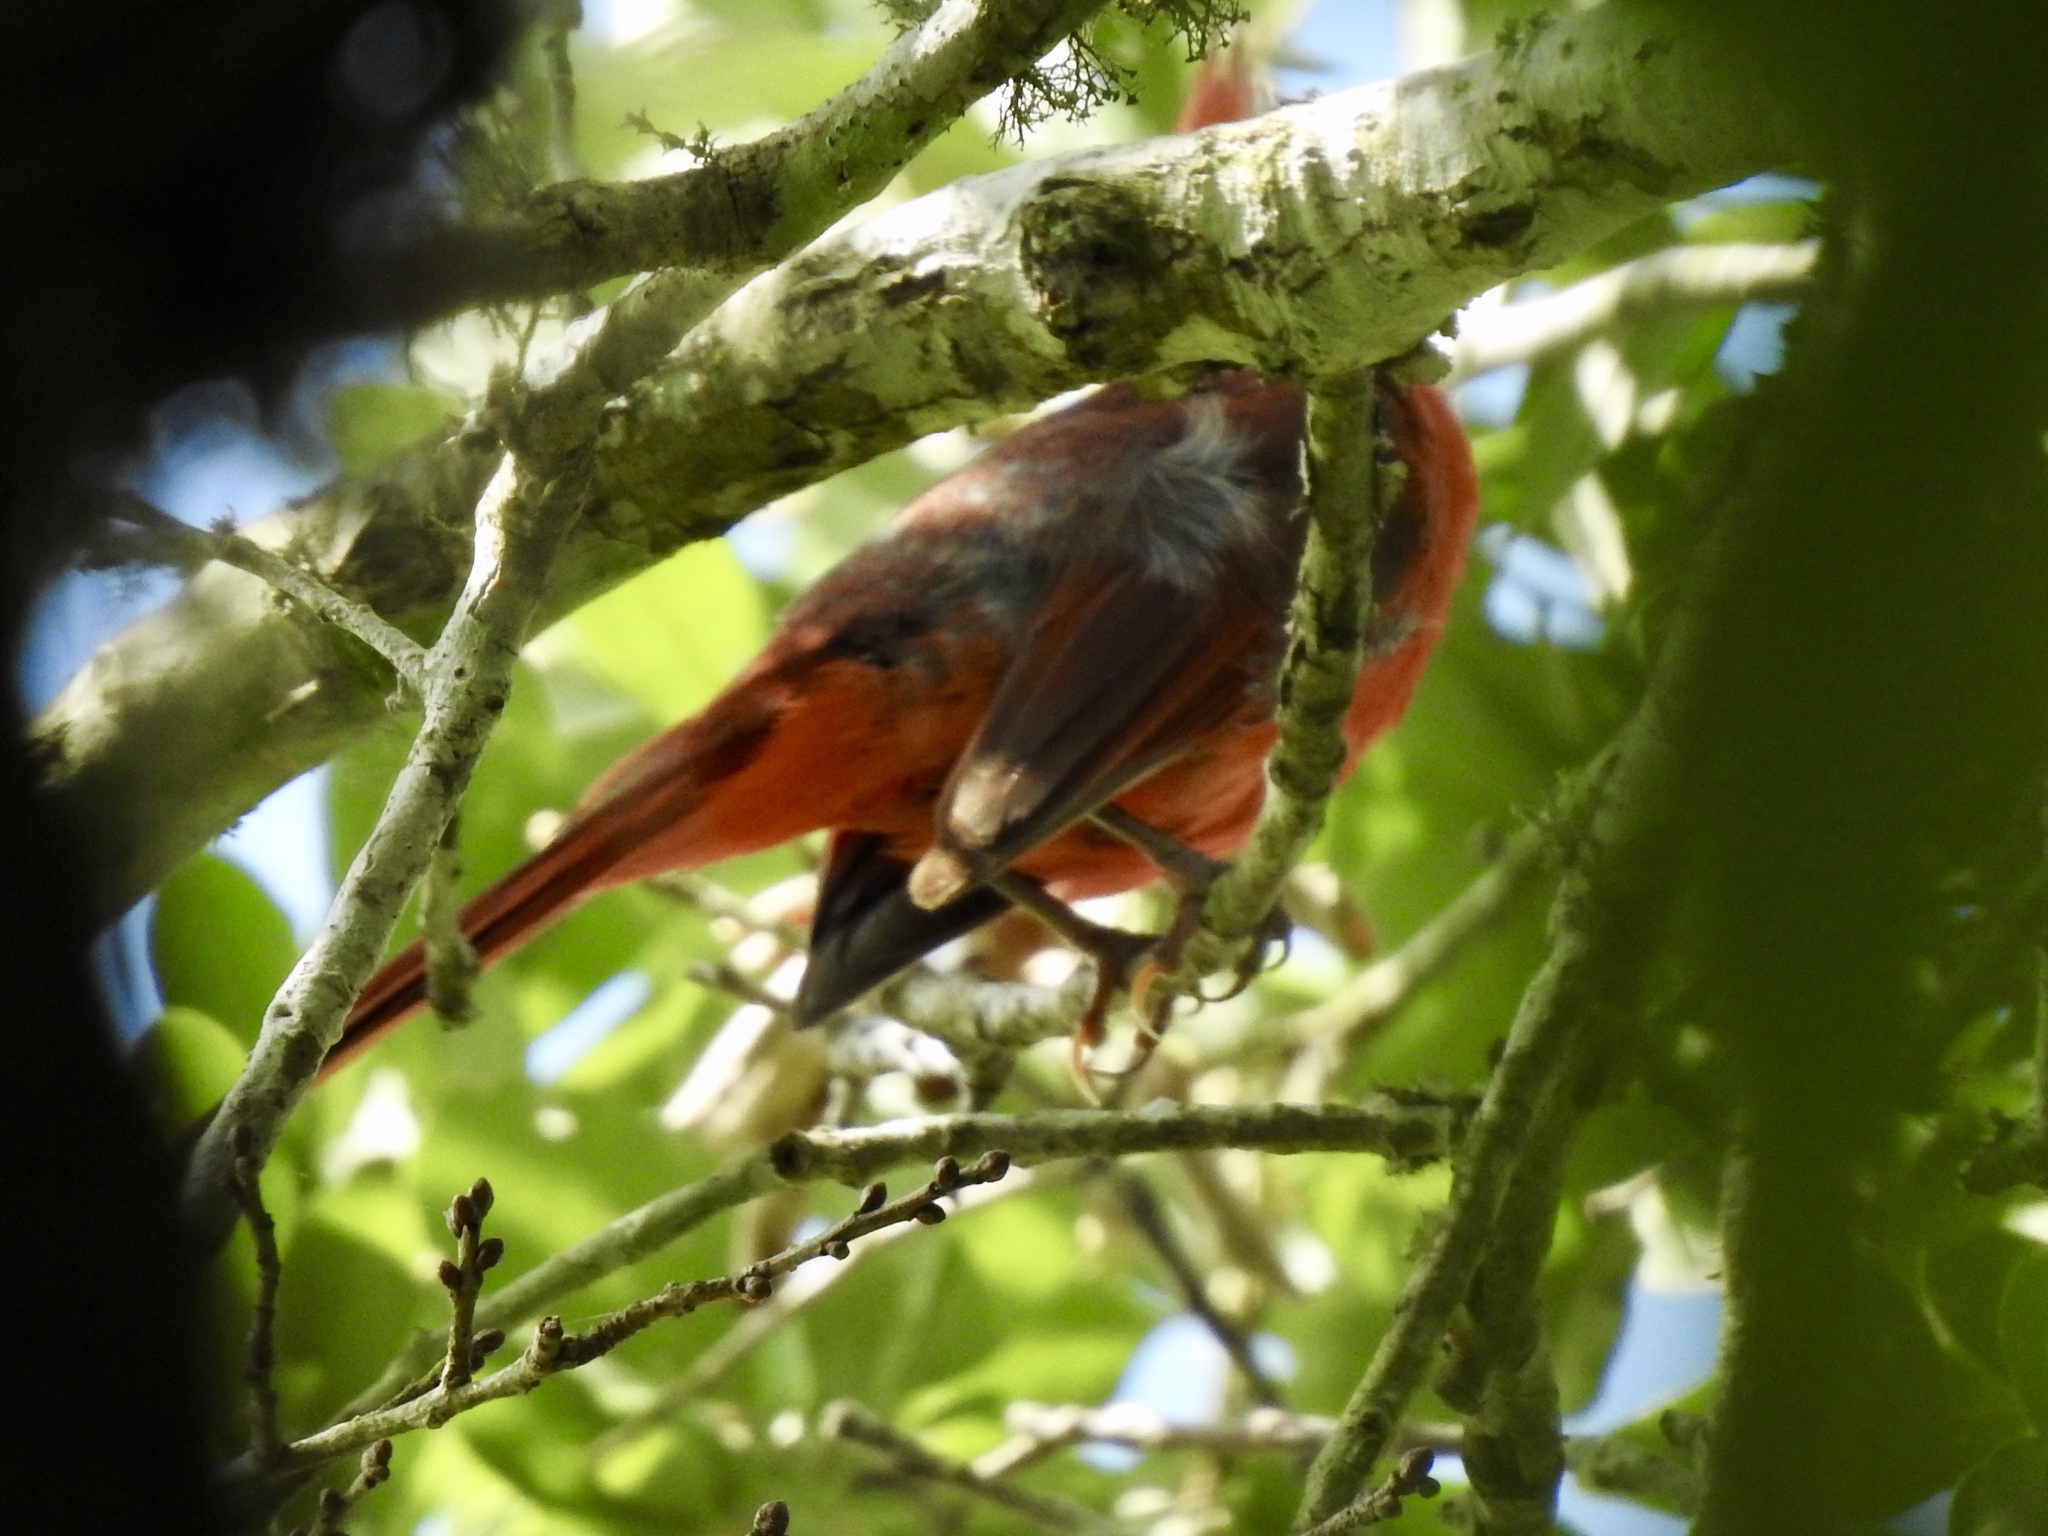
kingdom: Animalia
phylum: Chordata
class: Aves
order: Passeriformes
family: Cardinalidae
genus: Cardinalis
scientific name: Cardinalis cardinalis
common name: Northern cardinal
